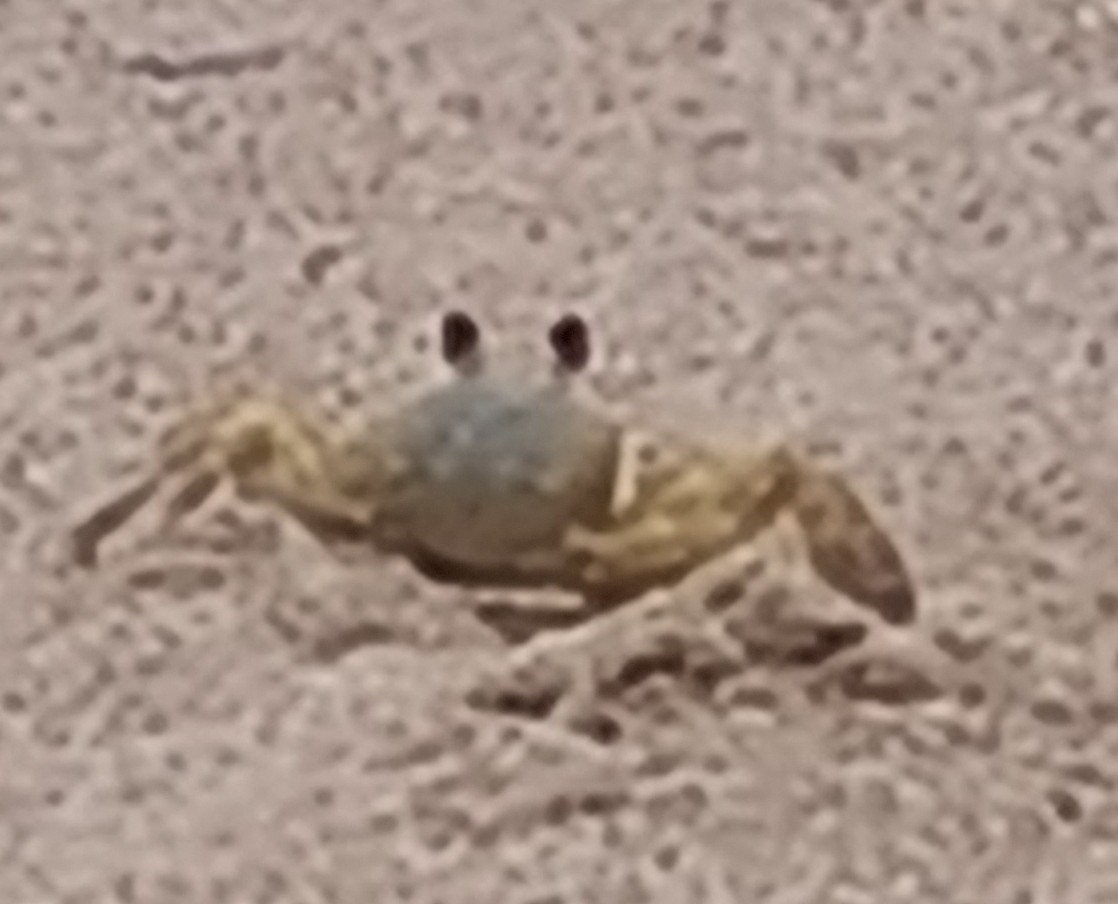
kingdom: Animalia
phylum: Arthropoda
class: Malacostraca
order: Decapoda
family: Ocypodidae
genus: Ocypode
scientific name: Ocypode quadrata
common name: Ghost crab
